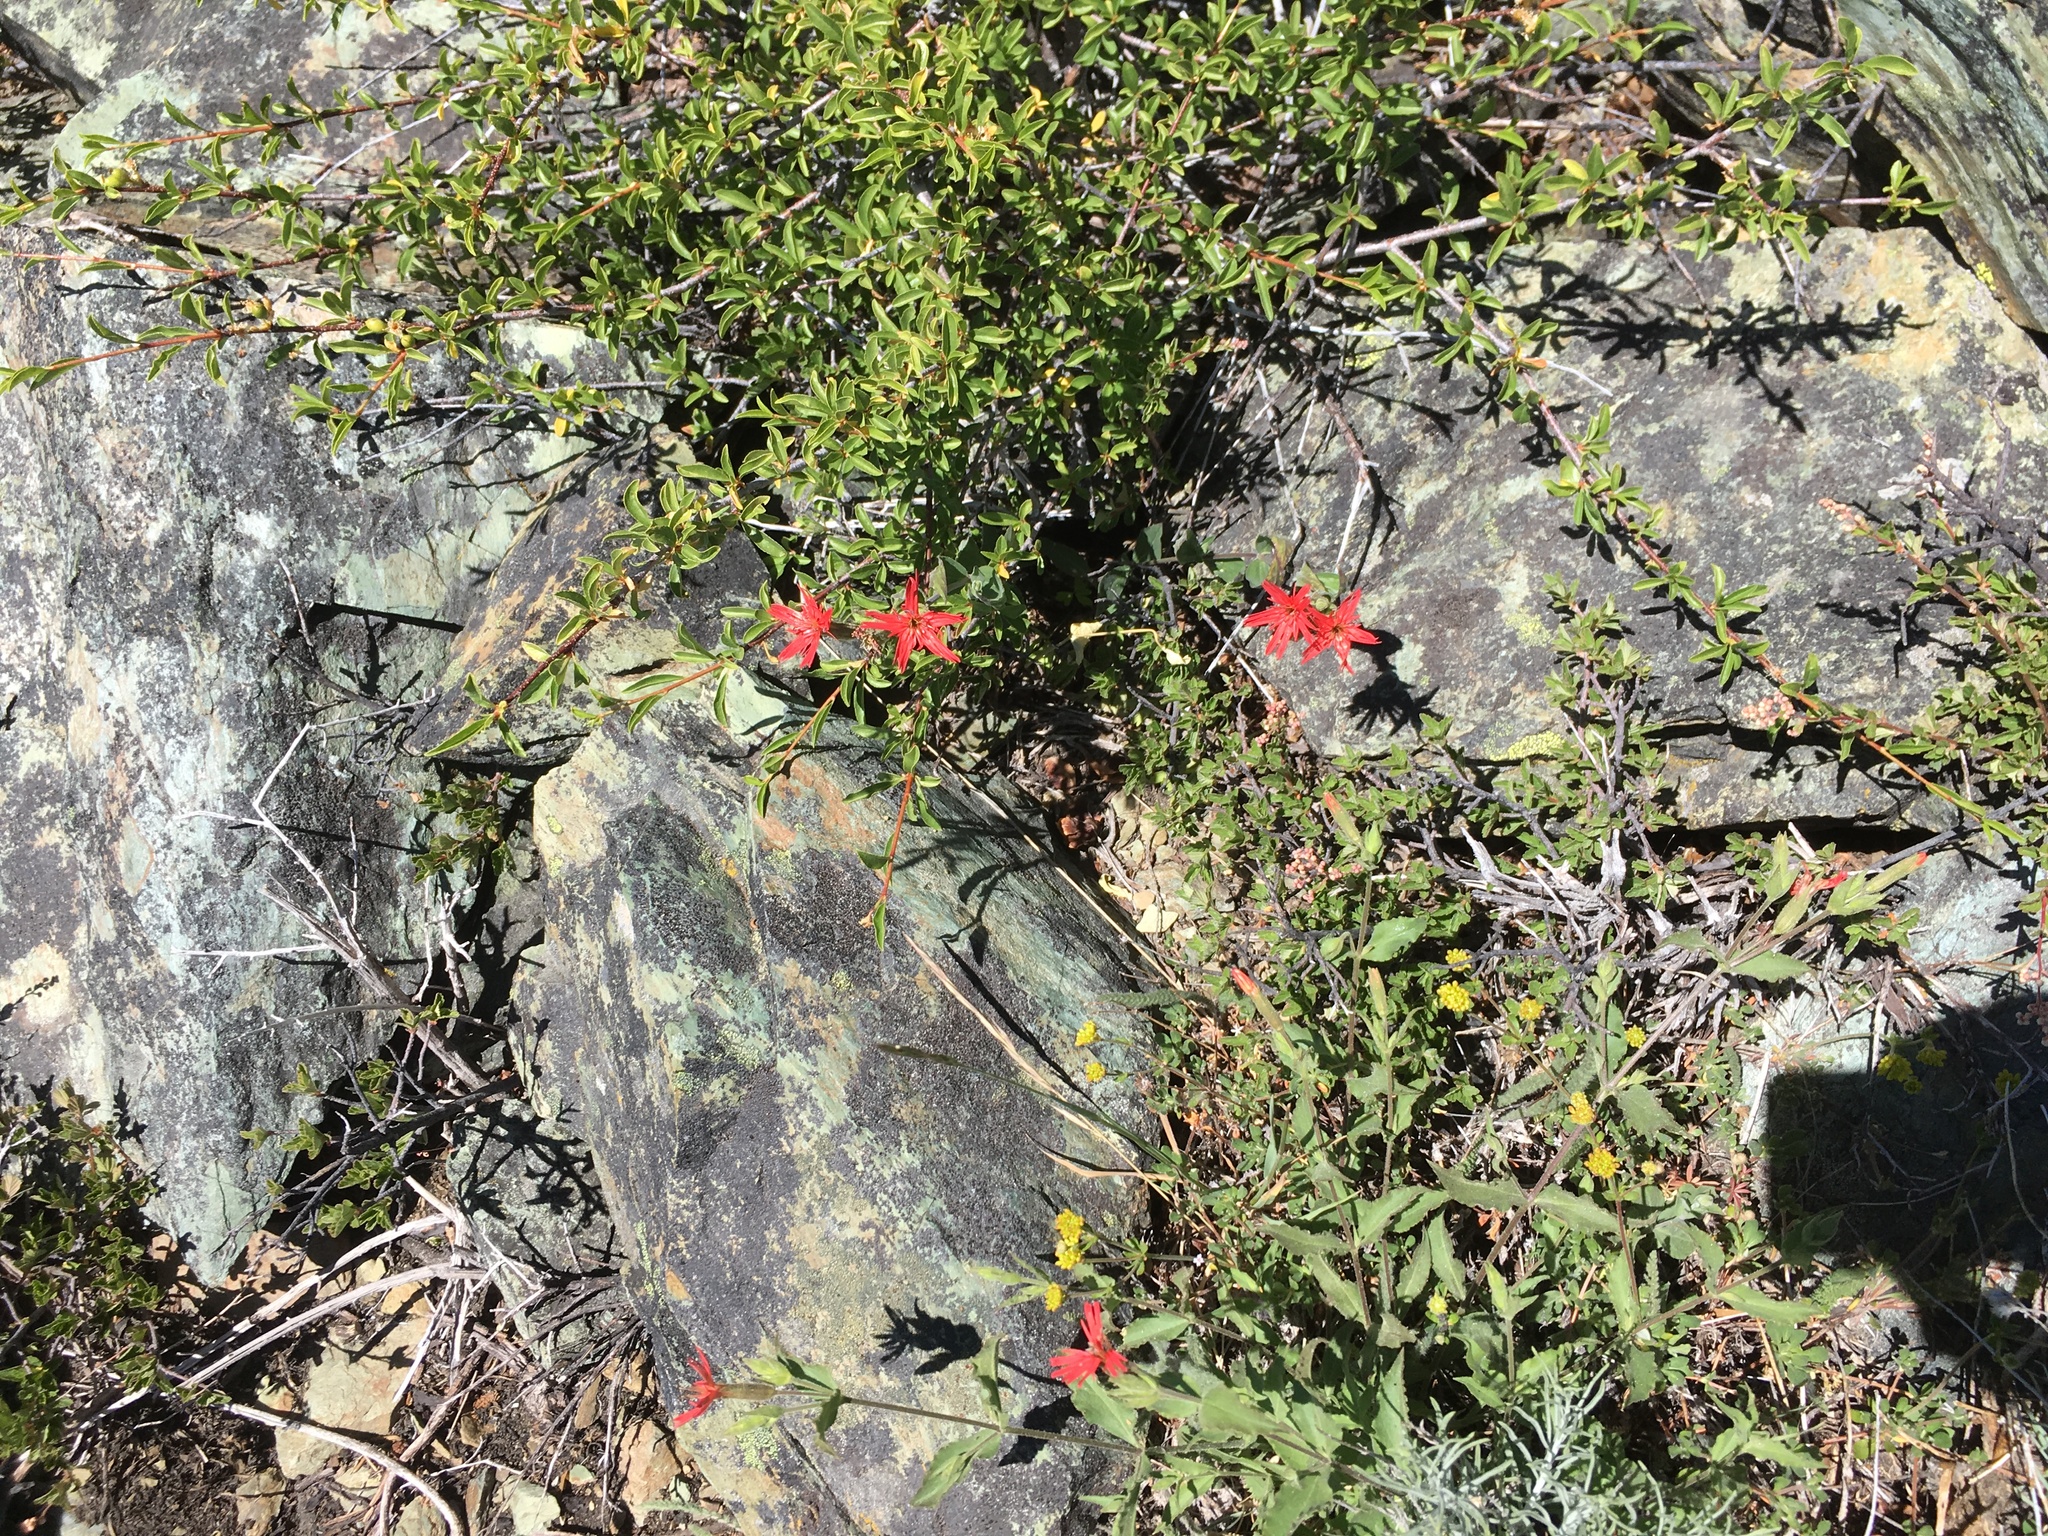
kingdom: Plantae
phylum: Tracheophyta
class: Magnoliopsida
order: Caryophyllales
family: Caryophyllaceae
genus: Silene
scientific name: Silene laciniata
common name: Indian-pink
